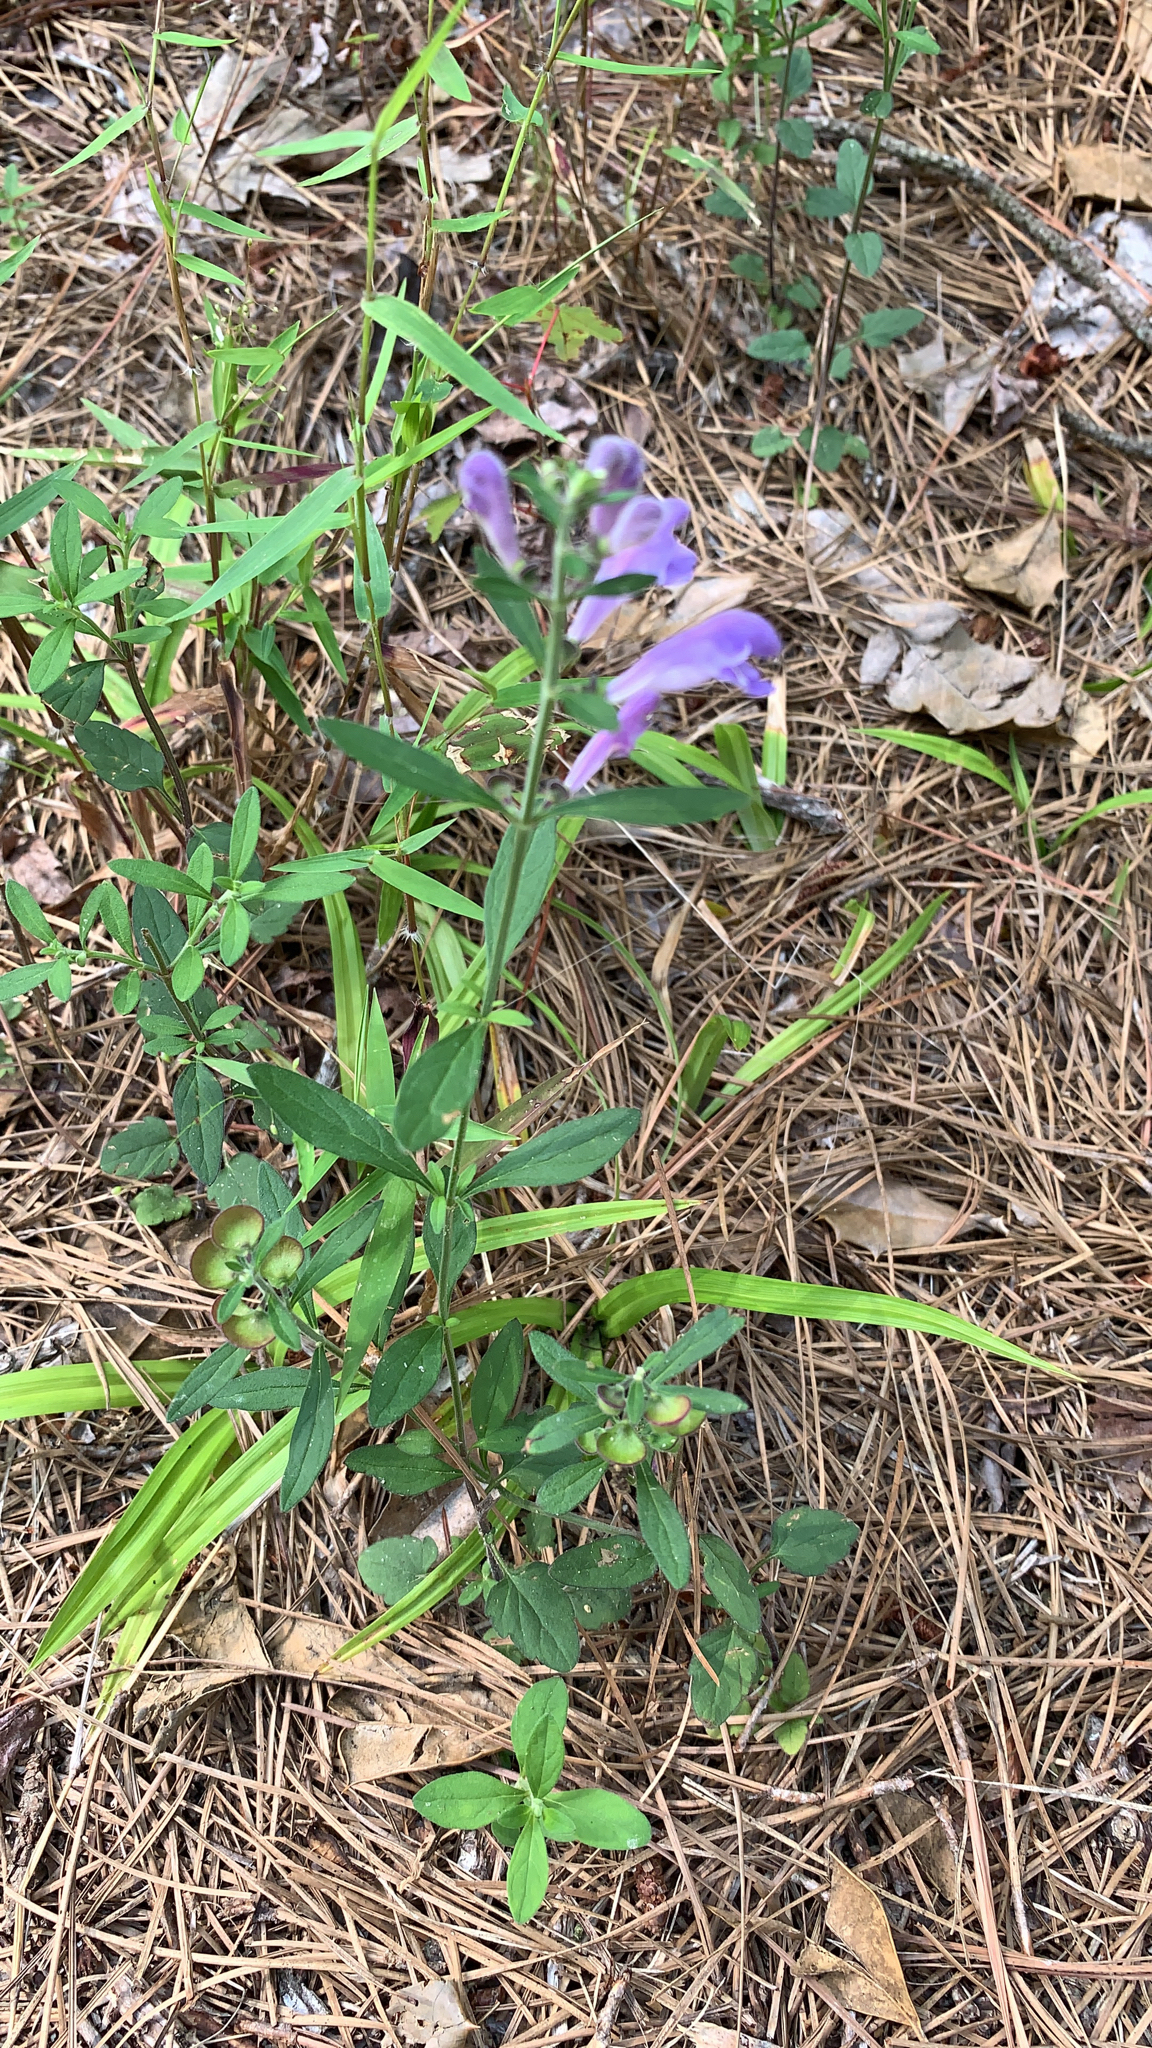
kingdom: Plantae
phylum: Tracheophyta
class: Magnoliopsida
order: Lamiales
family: Lamiaceae
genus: Scutellaria
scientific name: Scutellaria integrifolia
